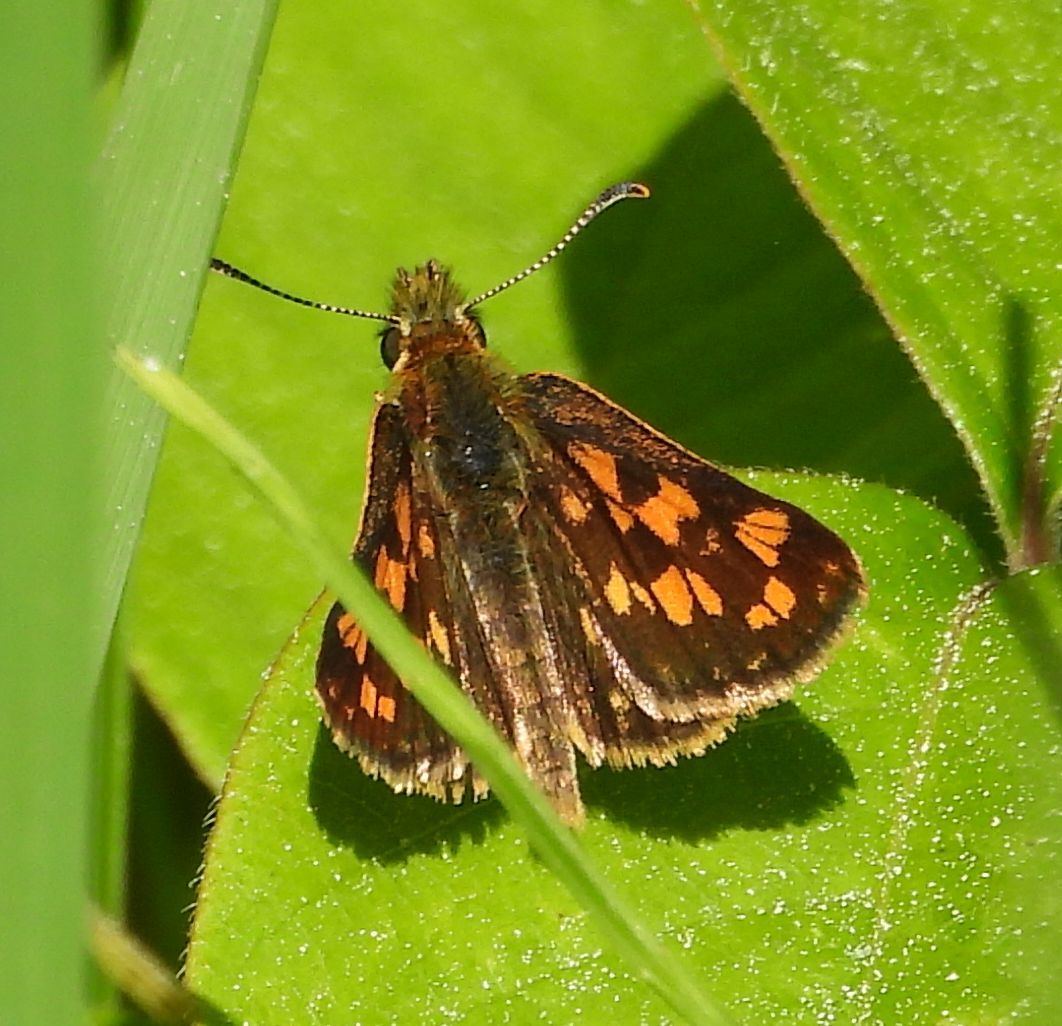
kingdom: Animalia
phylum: Arthropoda
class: Insecta
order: Lepidoptera
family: Hesperiidae
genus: Carterocephalus
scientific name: Carterocephalus mandan
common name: Arctic skipperling
